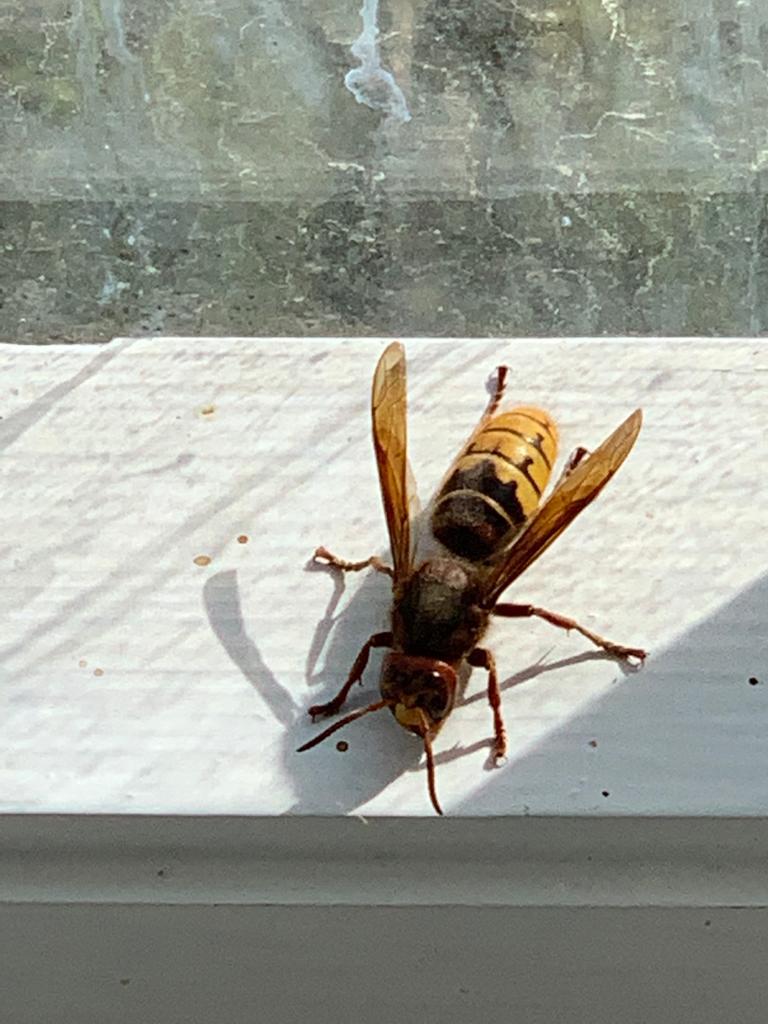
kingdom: Animalia
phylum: Arthropoda
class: Insecta
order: Hymenoptera
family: Vespidae
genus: Vespa
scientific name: Vespa crabro
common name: Hornet
